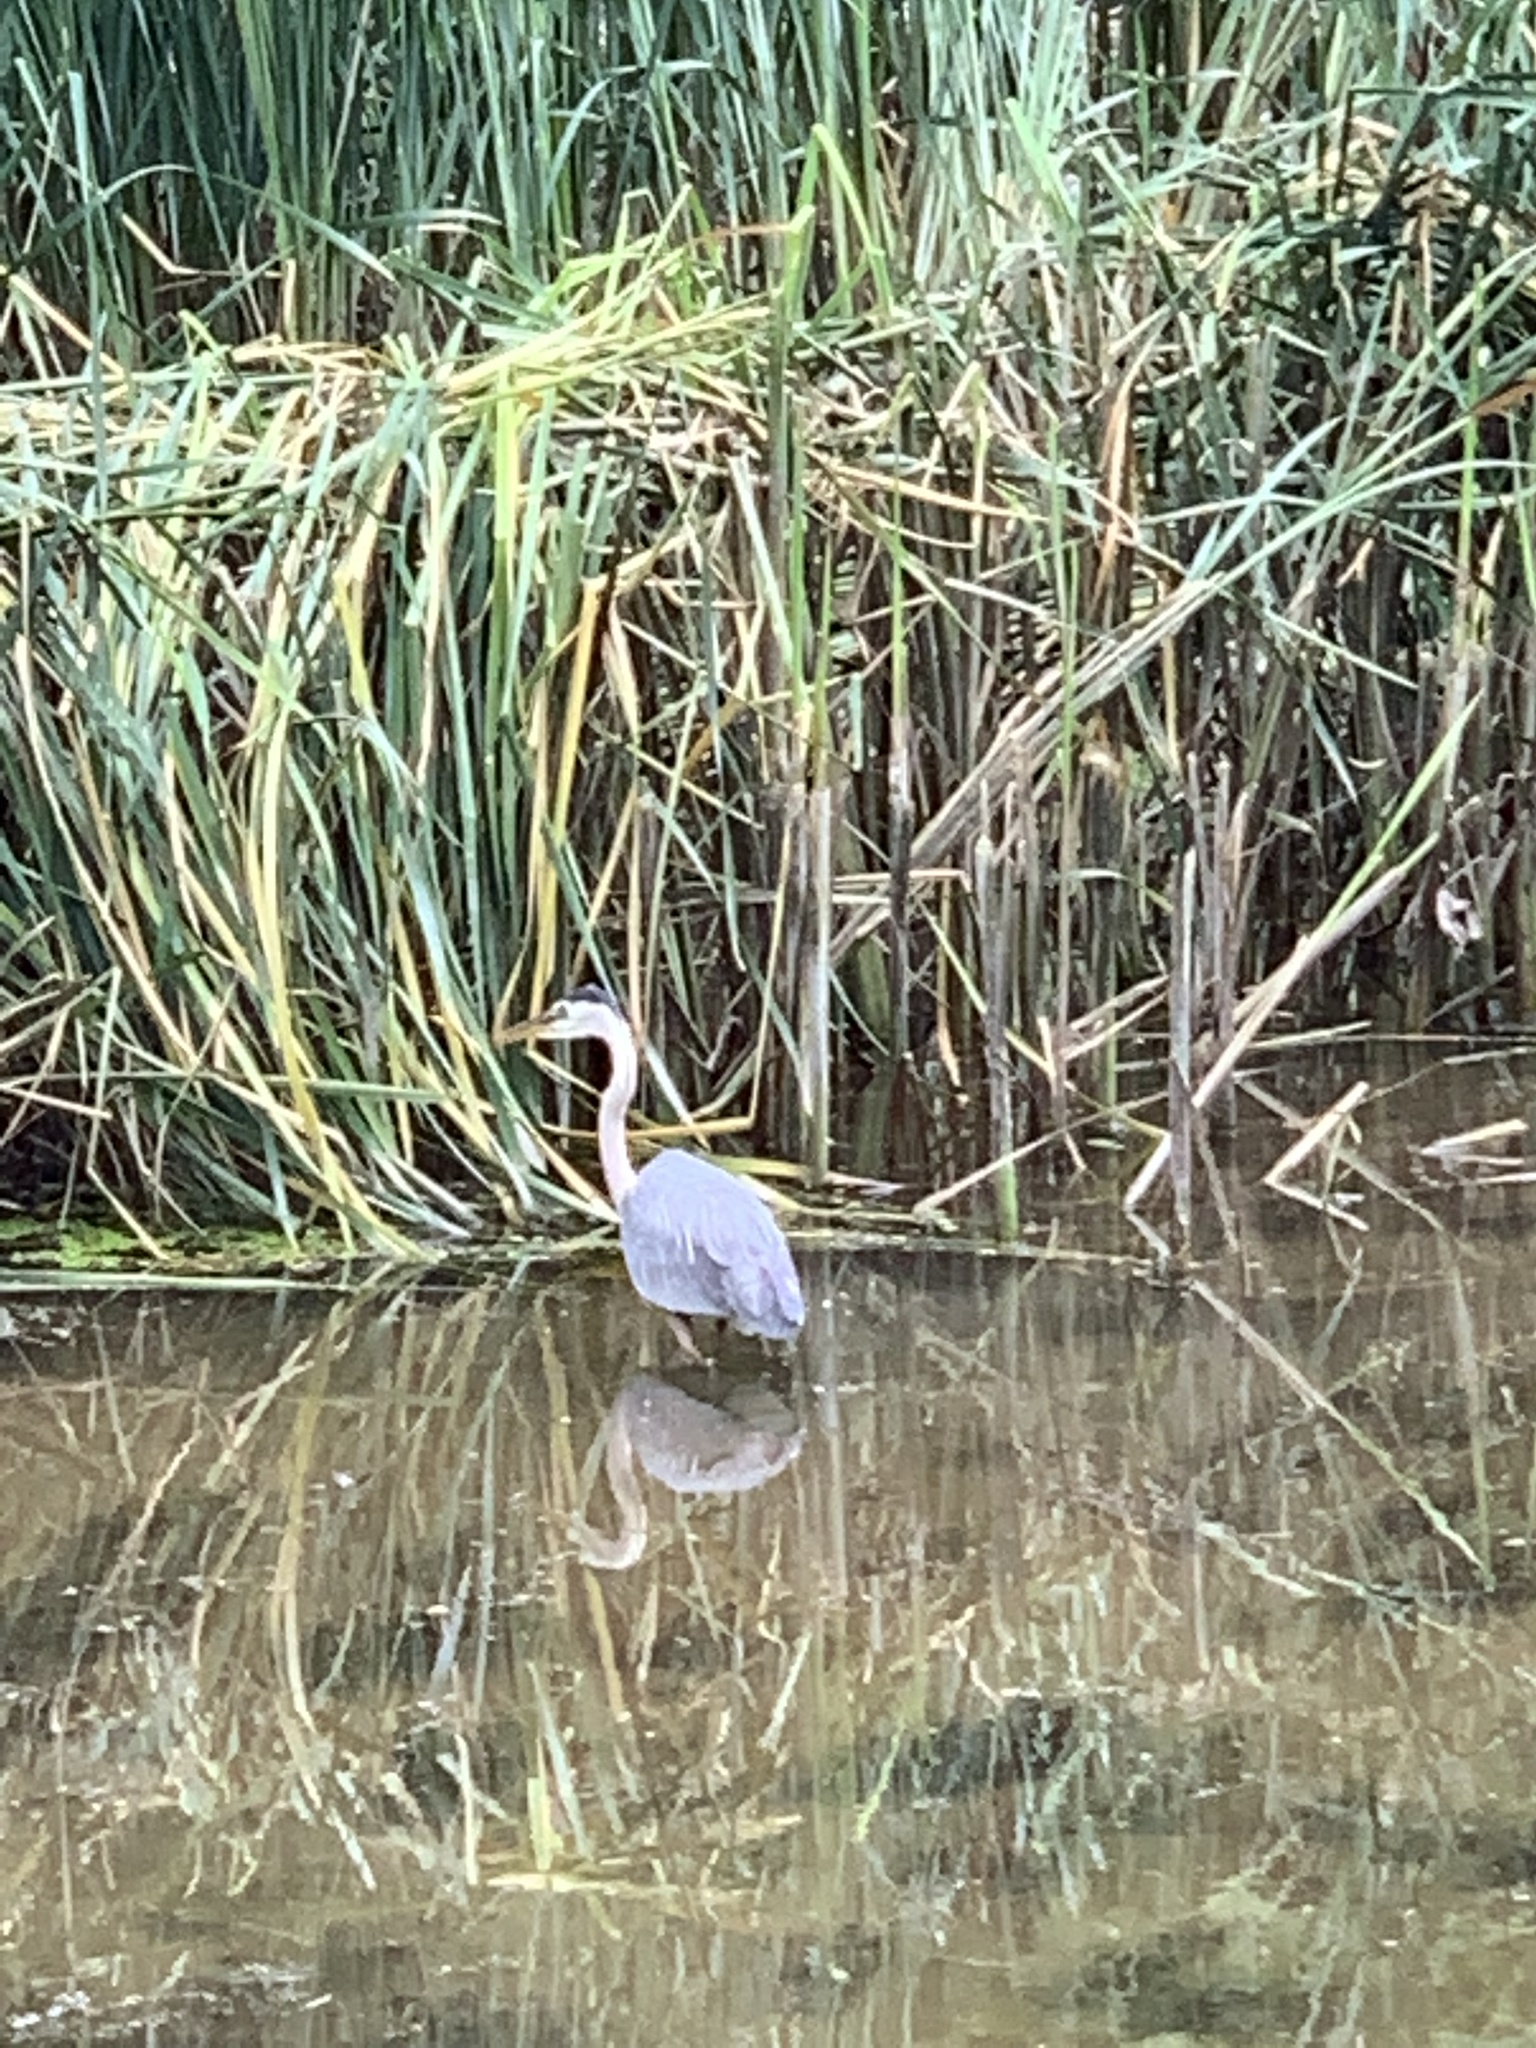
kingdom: Animalia
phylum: Chordata
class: Aves
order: Pelecaniformes
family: Ardeidae
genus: Ardea
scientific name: Ardea herodias
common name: Great blue heron
